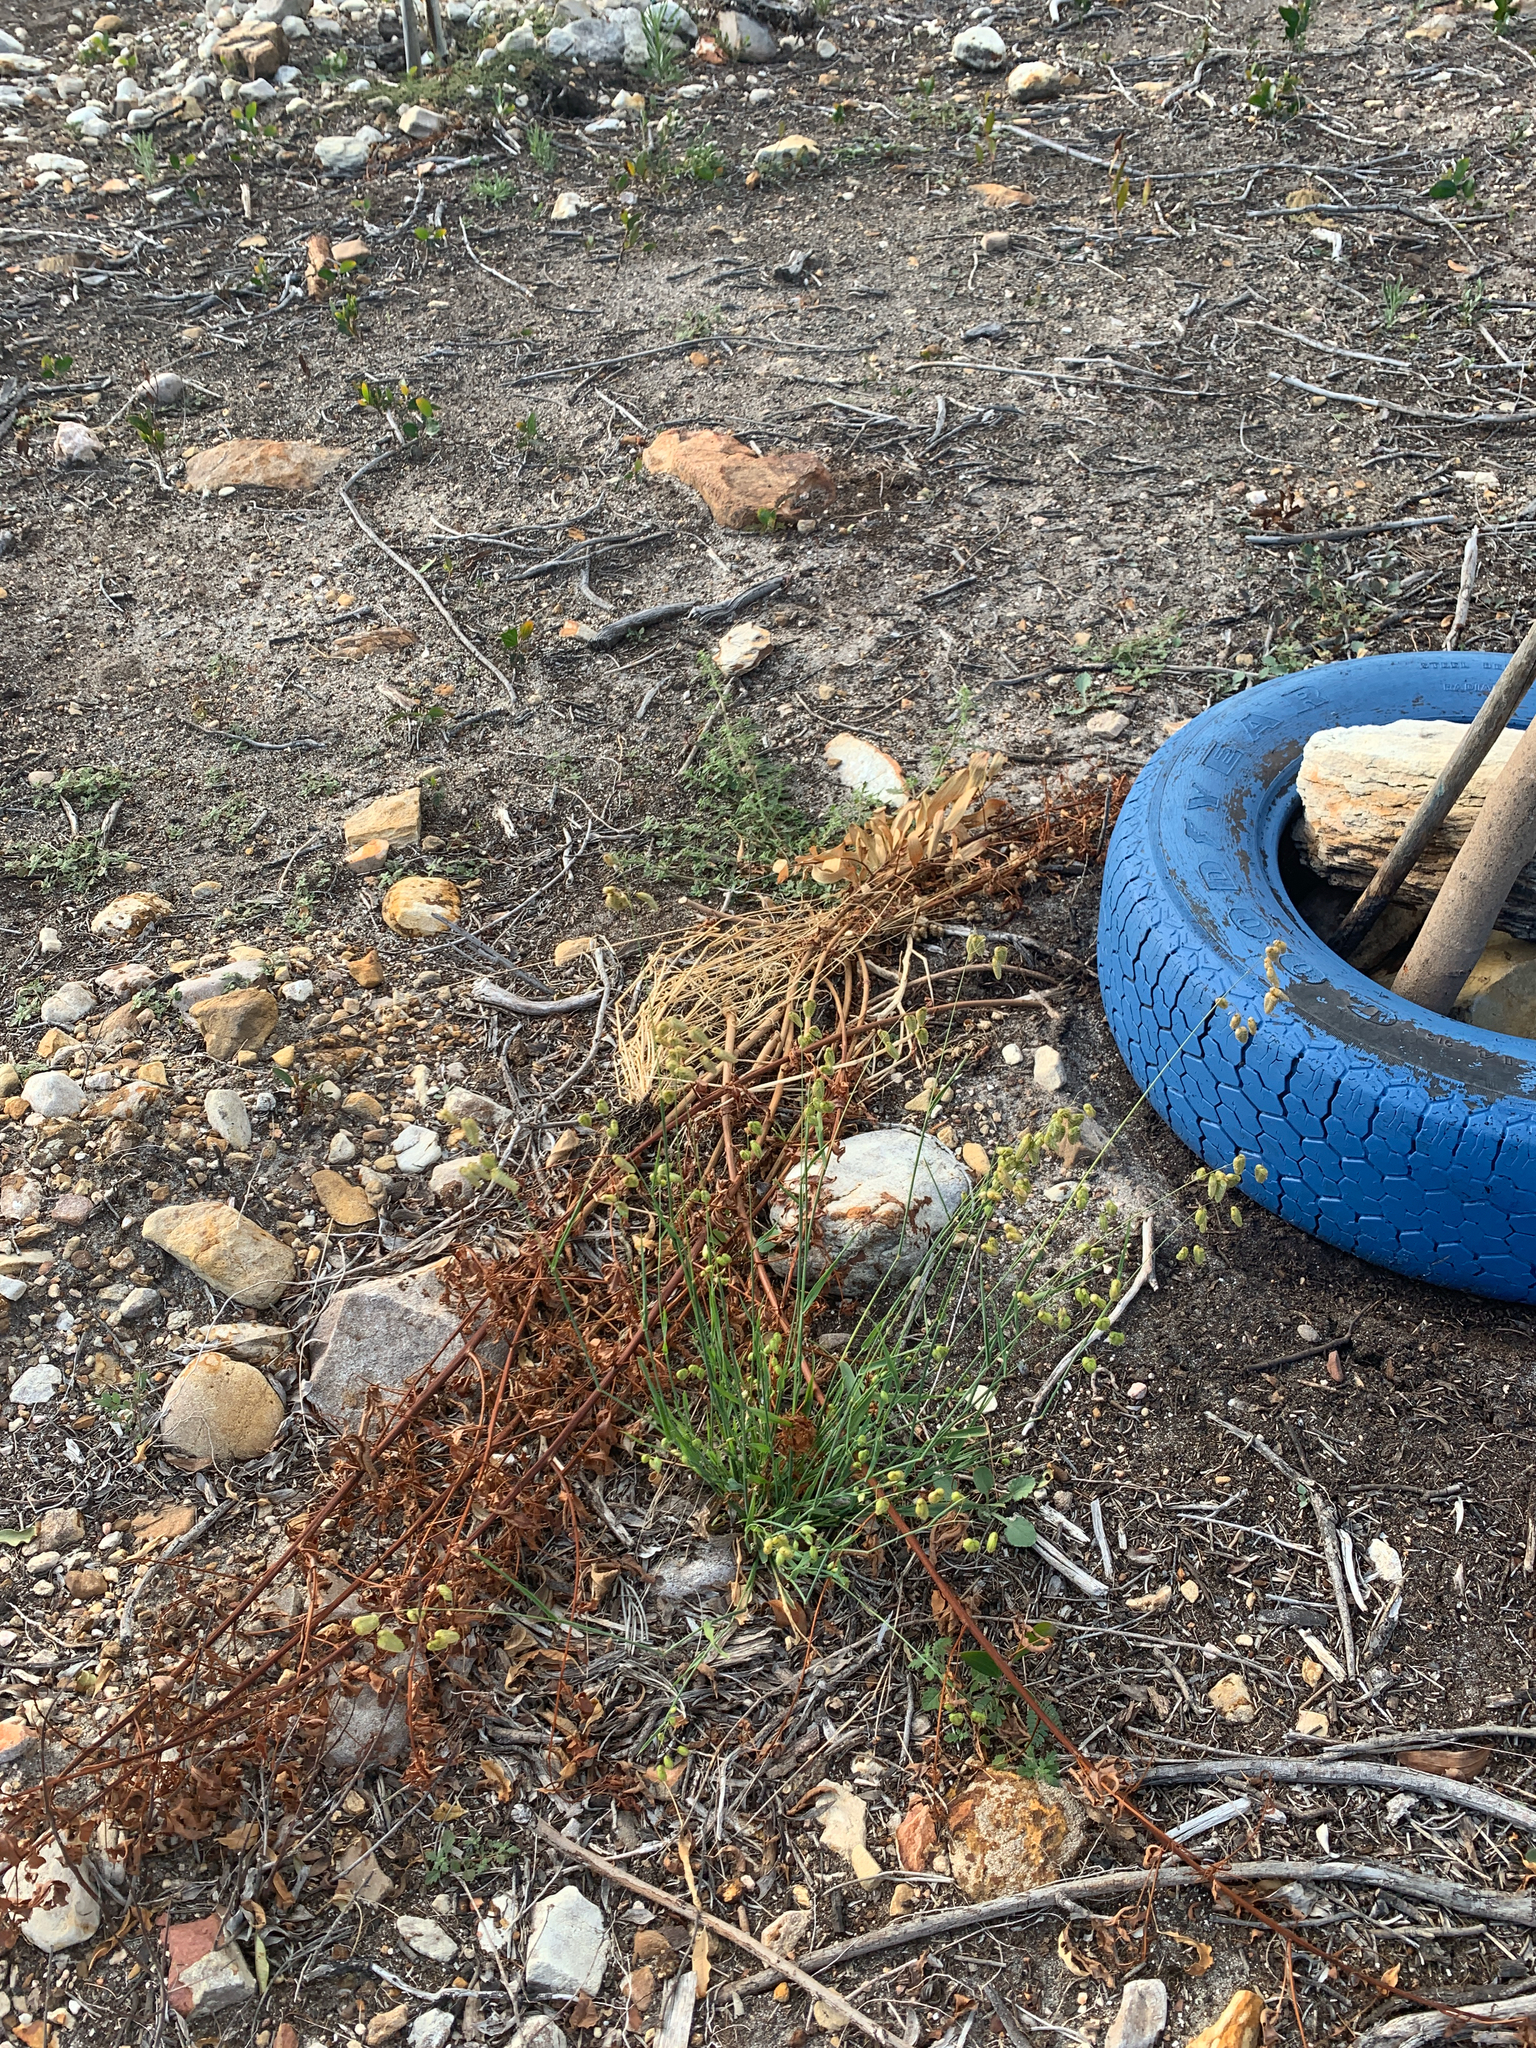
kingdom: Plantae
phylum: Tracheophyta
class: Liliopsida
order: Poales
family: Poaceae
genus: Briza
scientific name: Briza maxima
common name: Big quakinggrass
